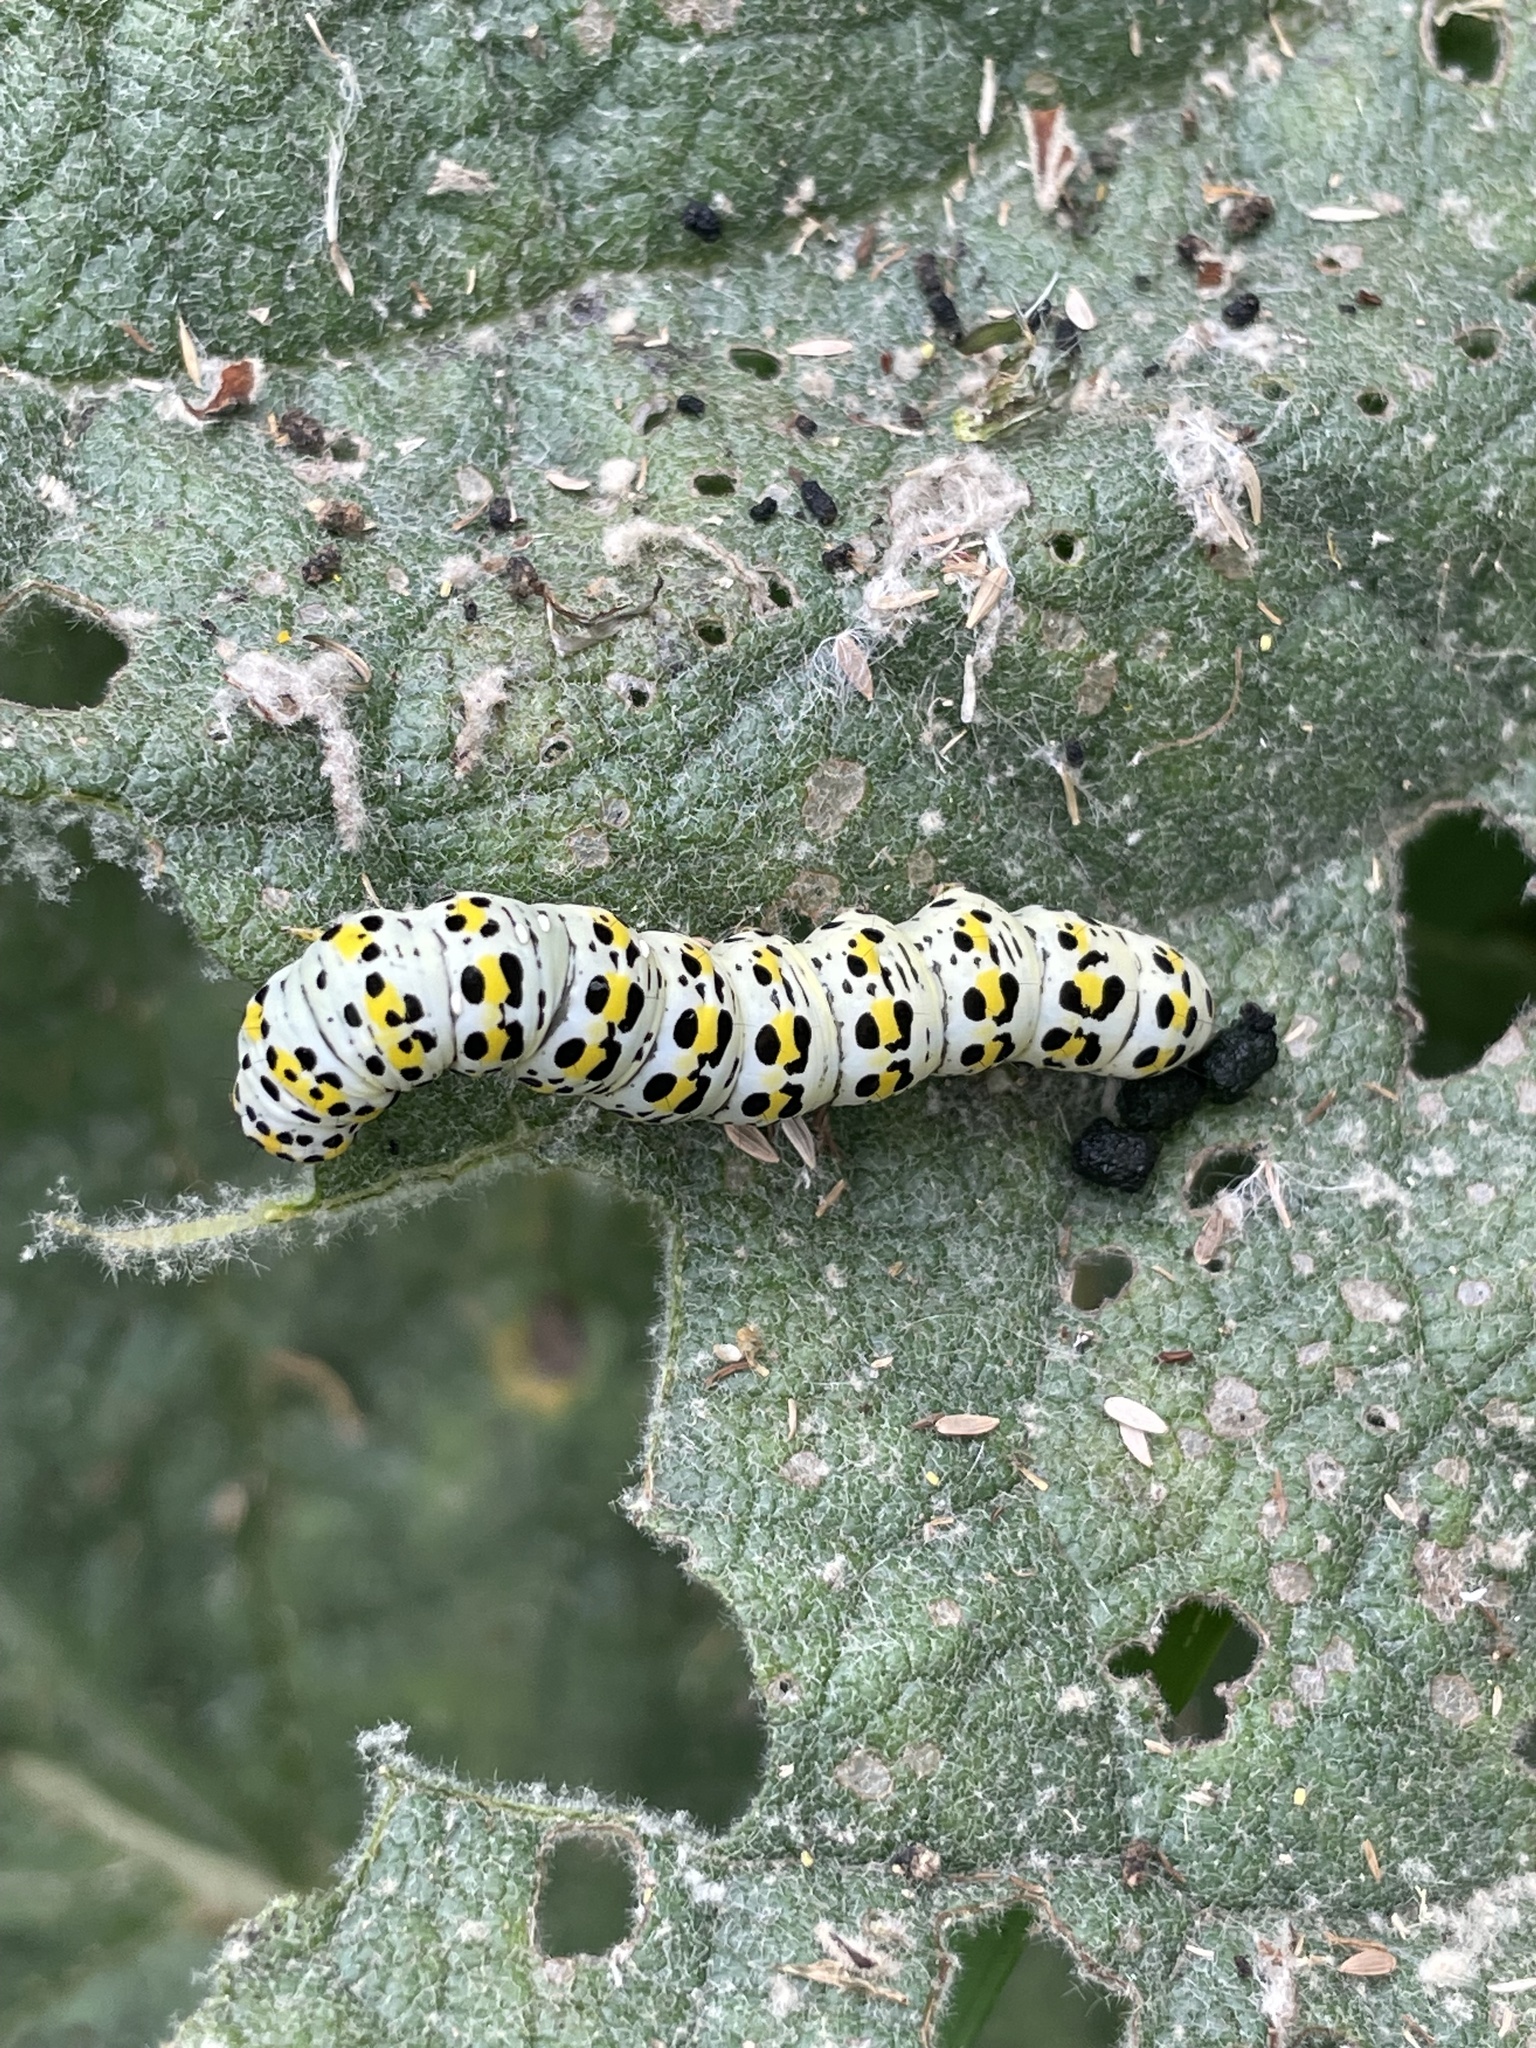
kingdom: Animalia
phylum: Arthropoda
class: Insecta
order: Lepidoptera
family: Noctuidae
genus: Cucullia
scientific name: Cucullia verbasci
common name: Mullein
